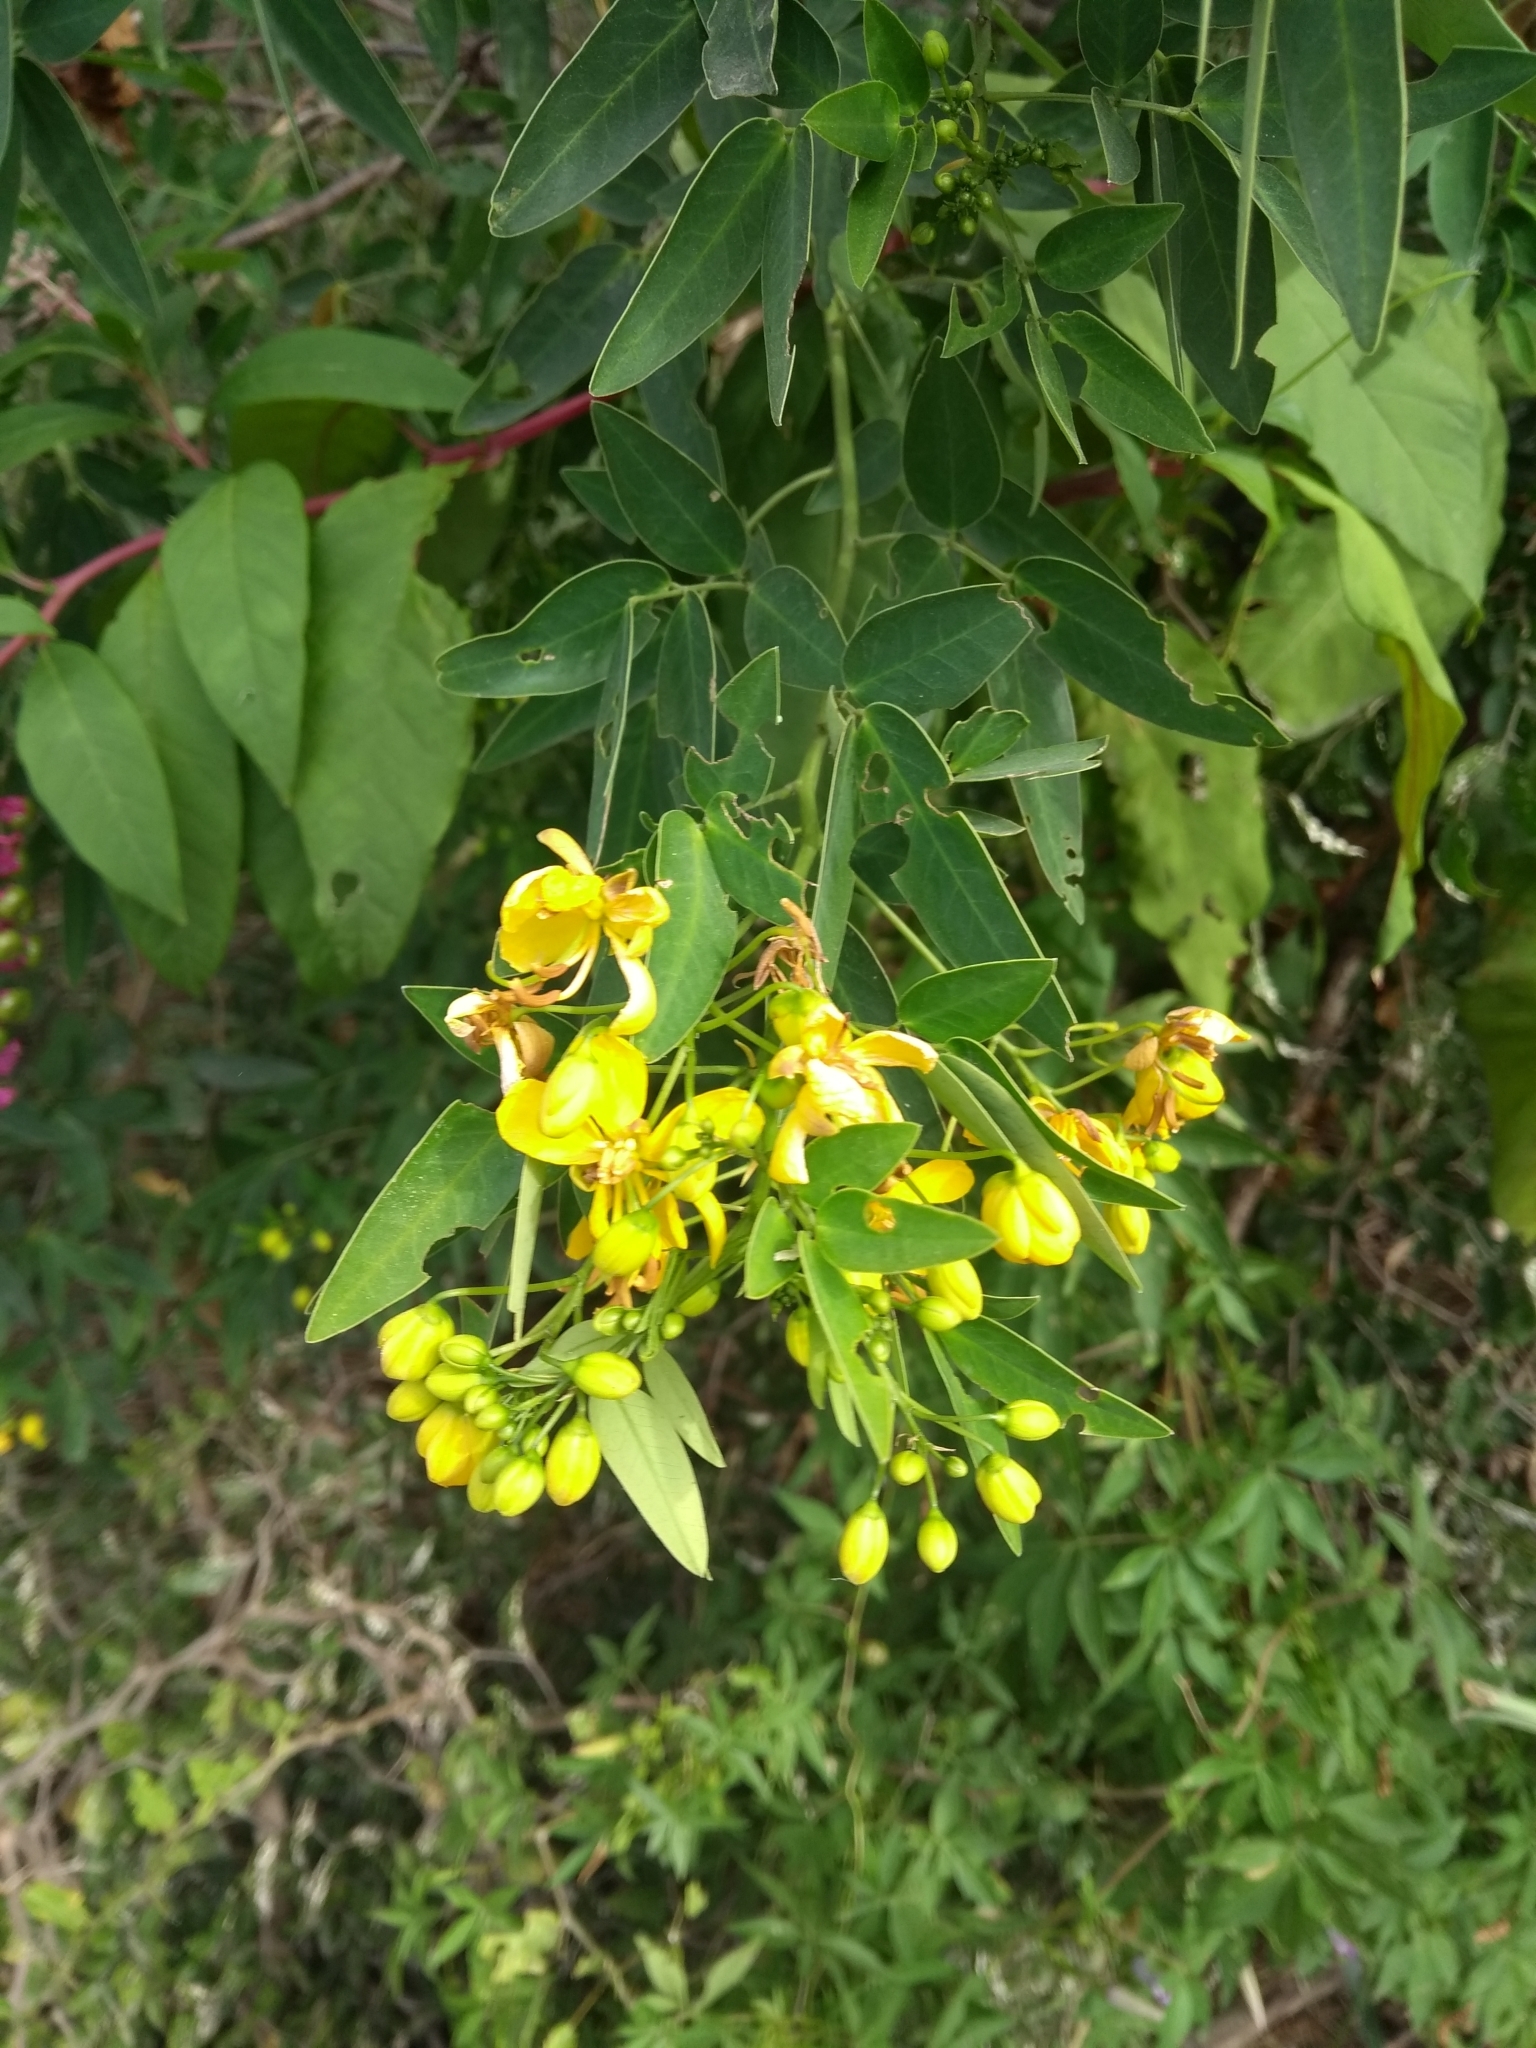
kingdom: Plantae
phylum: Tracheophyta
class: Magnoliopsida
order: Fabales
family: Fabaceae
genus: Senna
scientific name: Senna corymbosa
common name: Argentine senna
